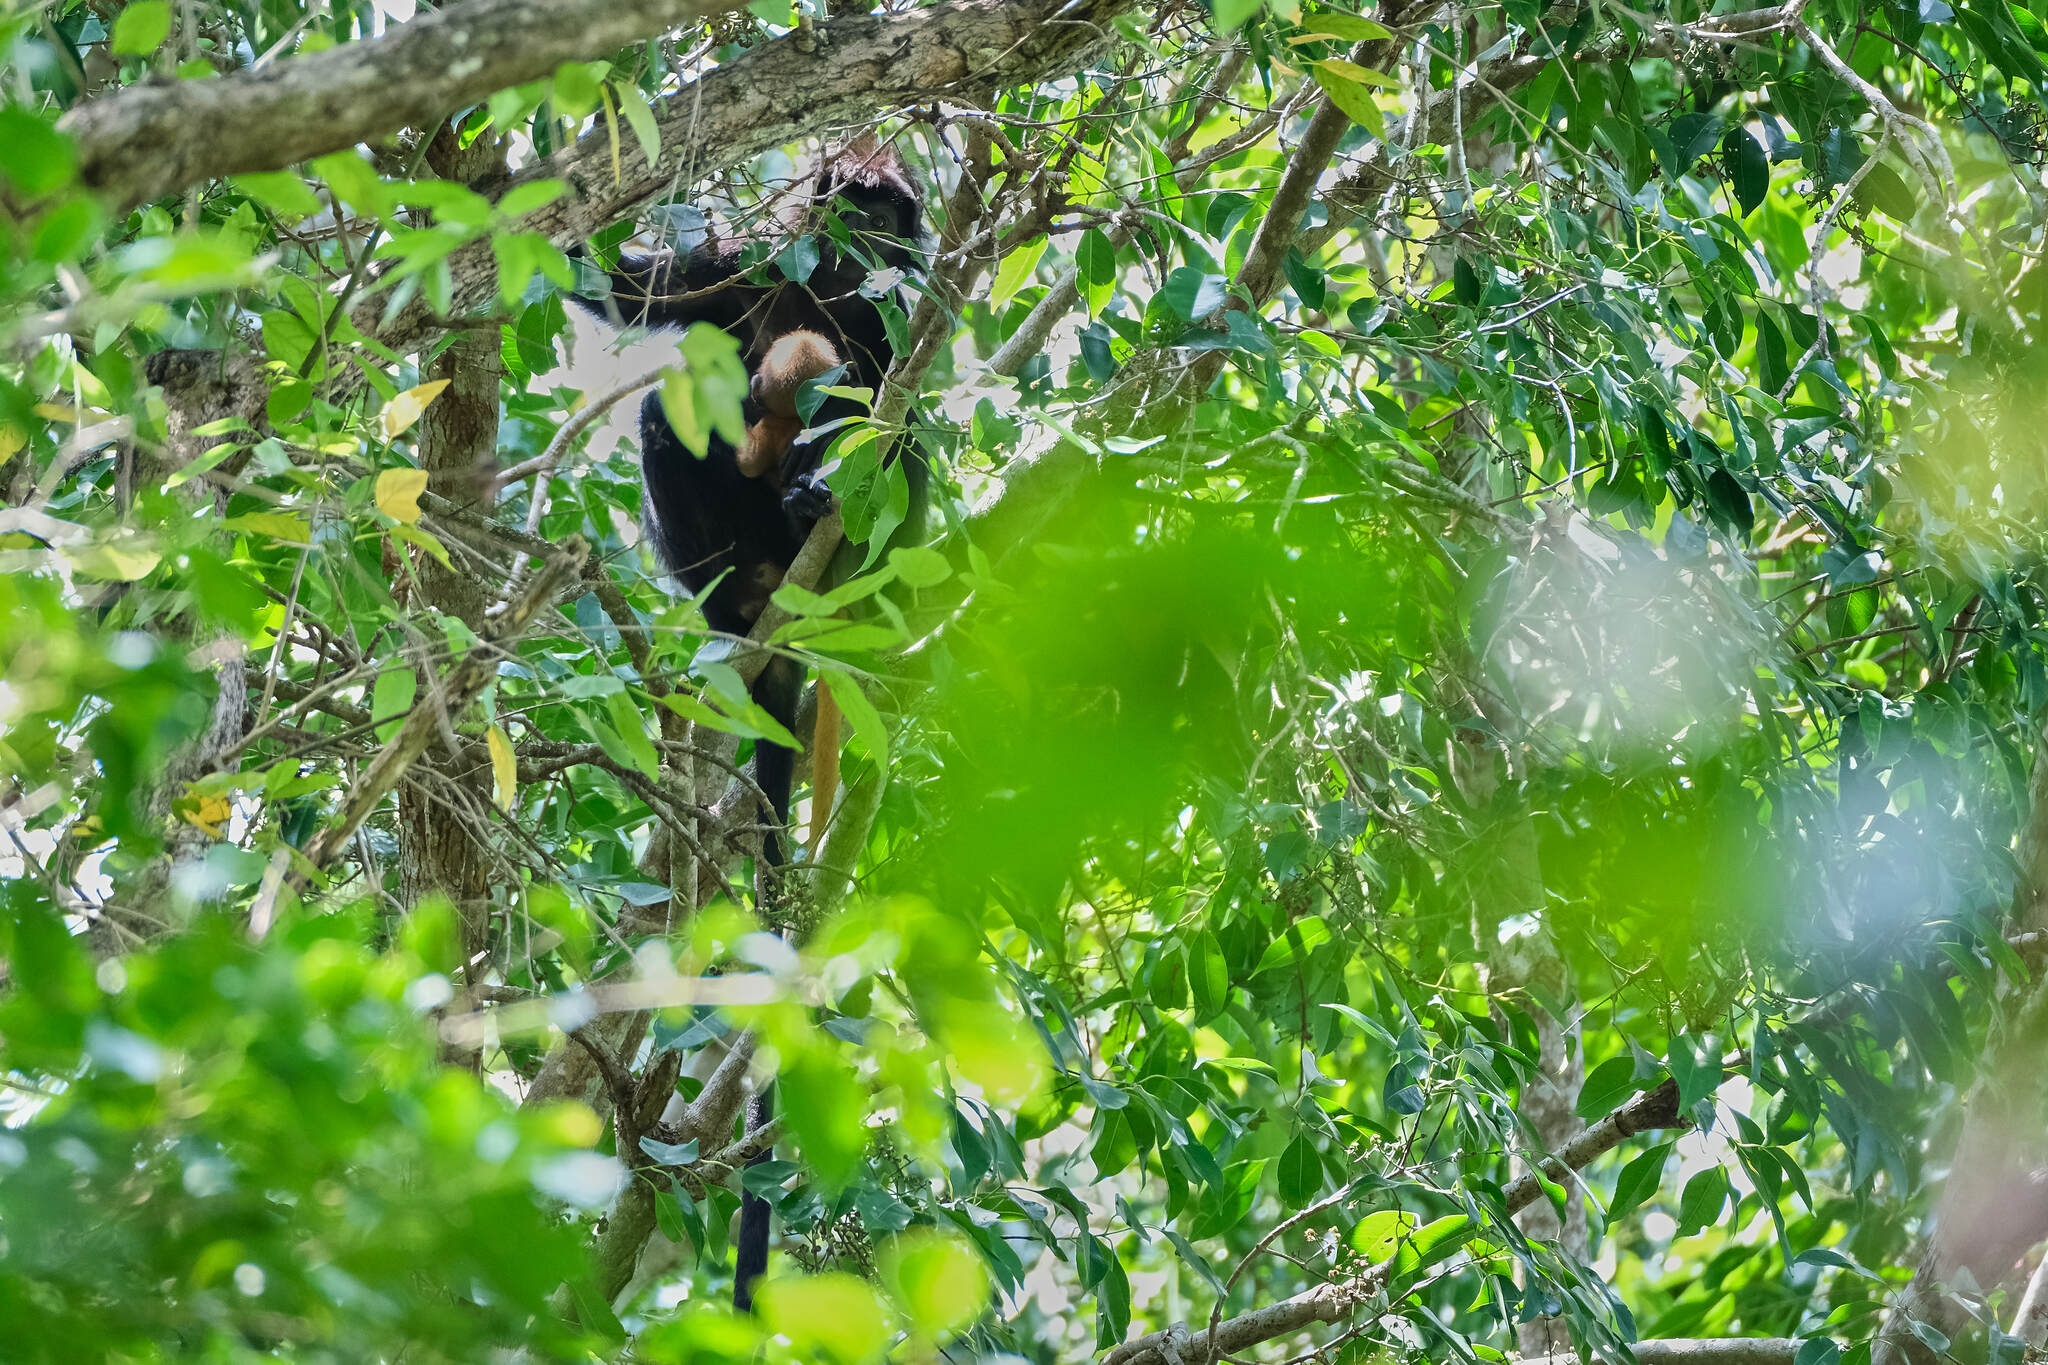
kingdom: Animalia
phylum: Chordata
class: Mammalia
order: Primates
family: Cercopithecidae
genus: Trachypithecus
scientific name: Trachypithecus auratus
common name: Javan lutung
